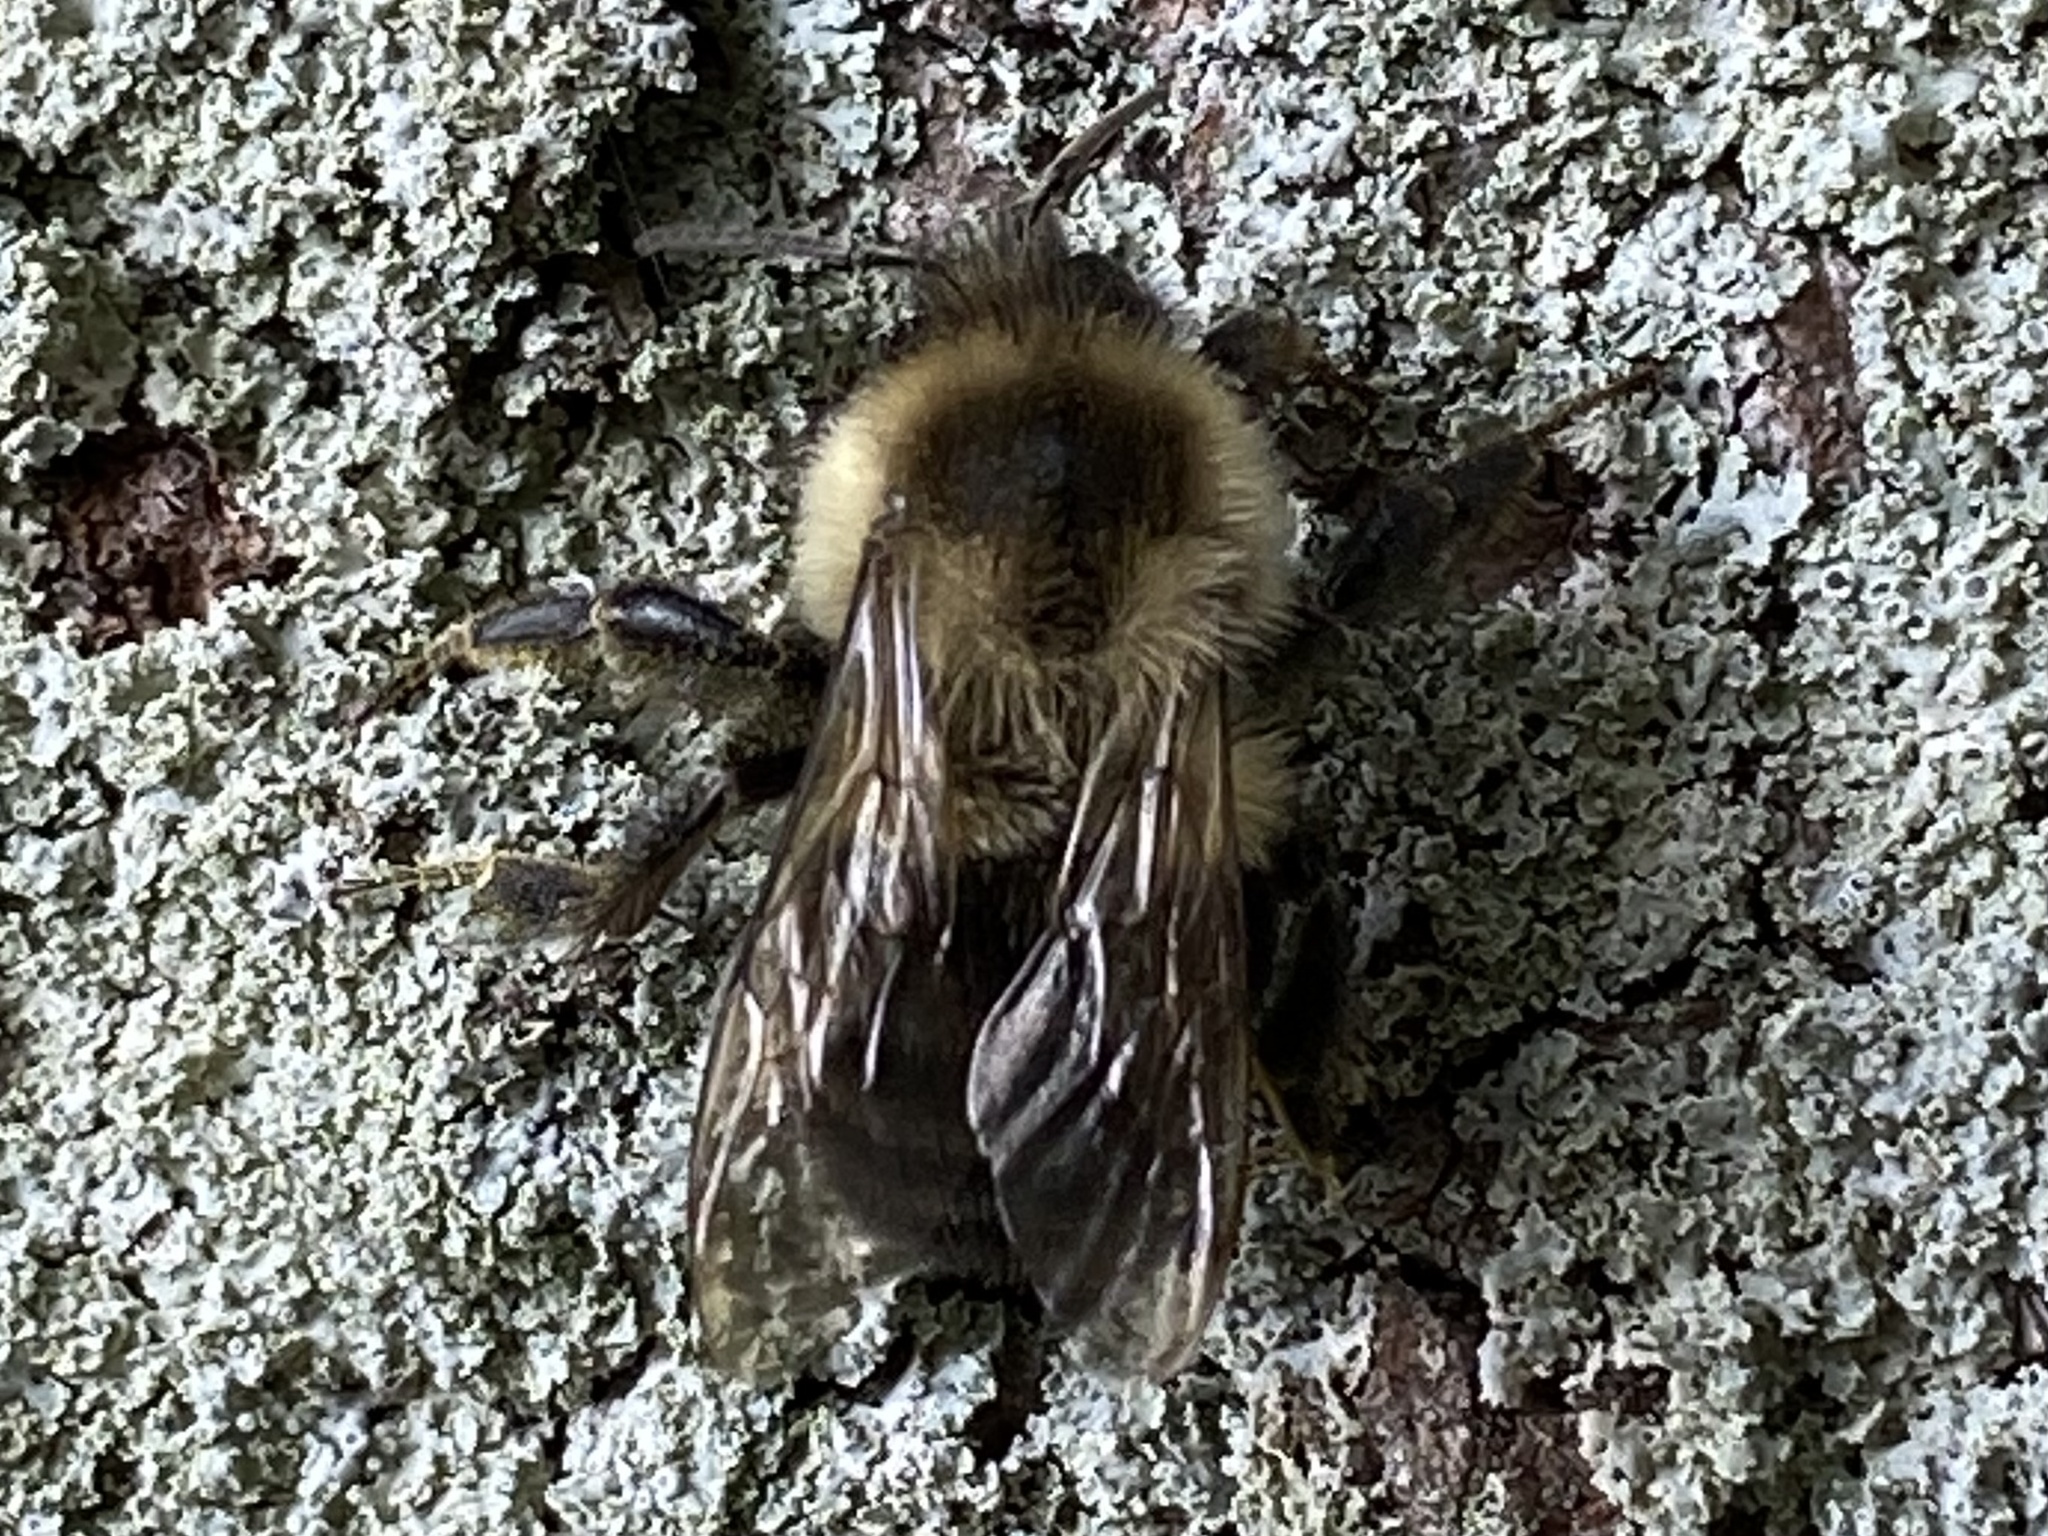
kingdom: Animalia
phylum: Arthropoda
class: Insecta
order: Hymenoptera
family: Apidae
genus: Bombus
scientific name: Bombus impatiens
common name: Common eastern bumble bee
